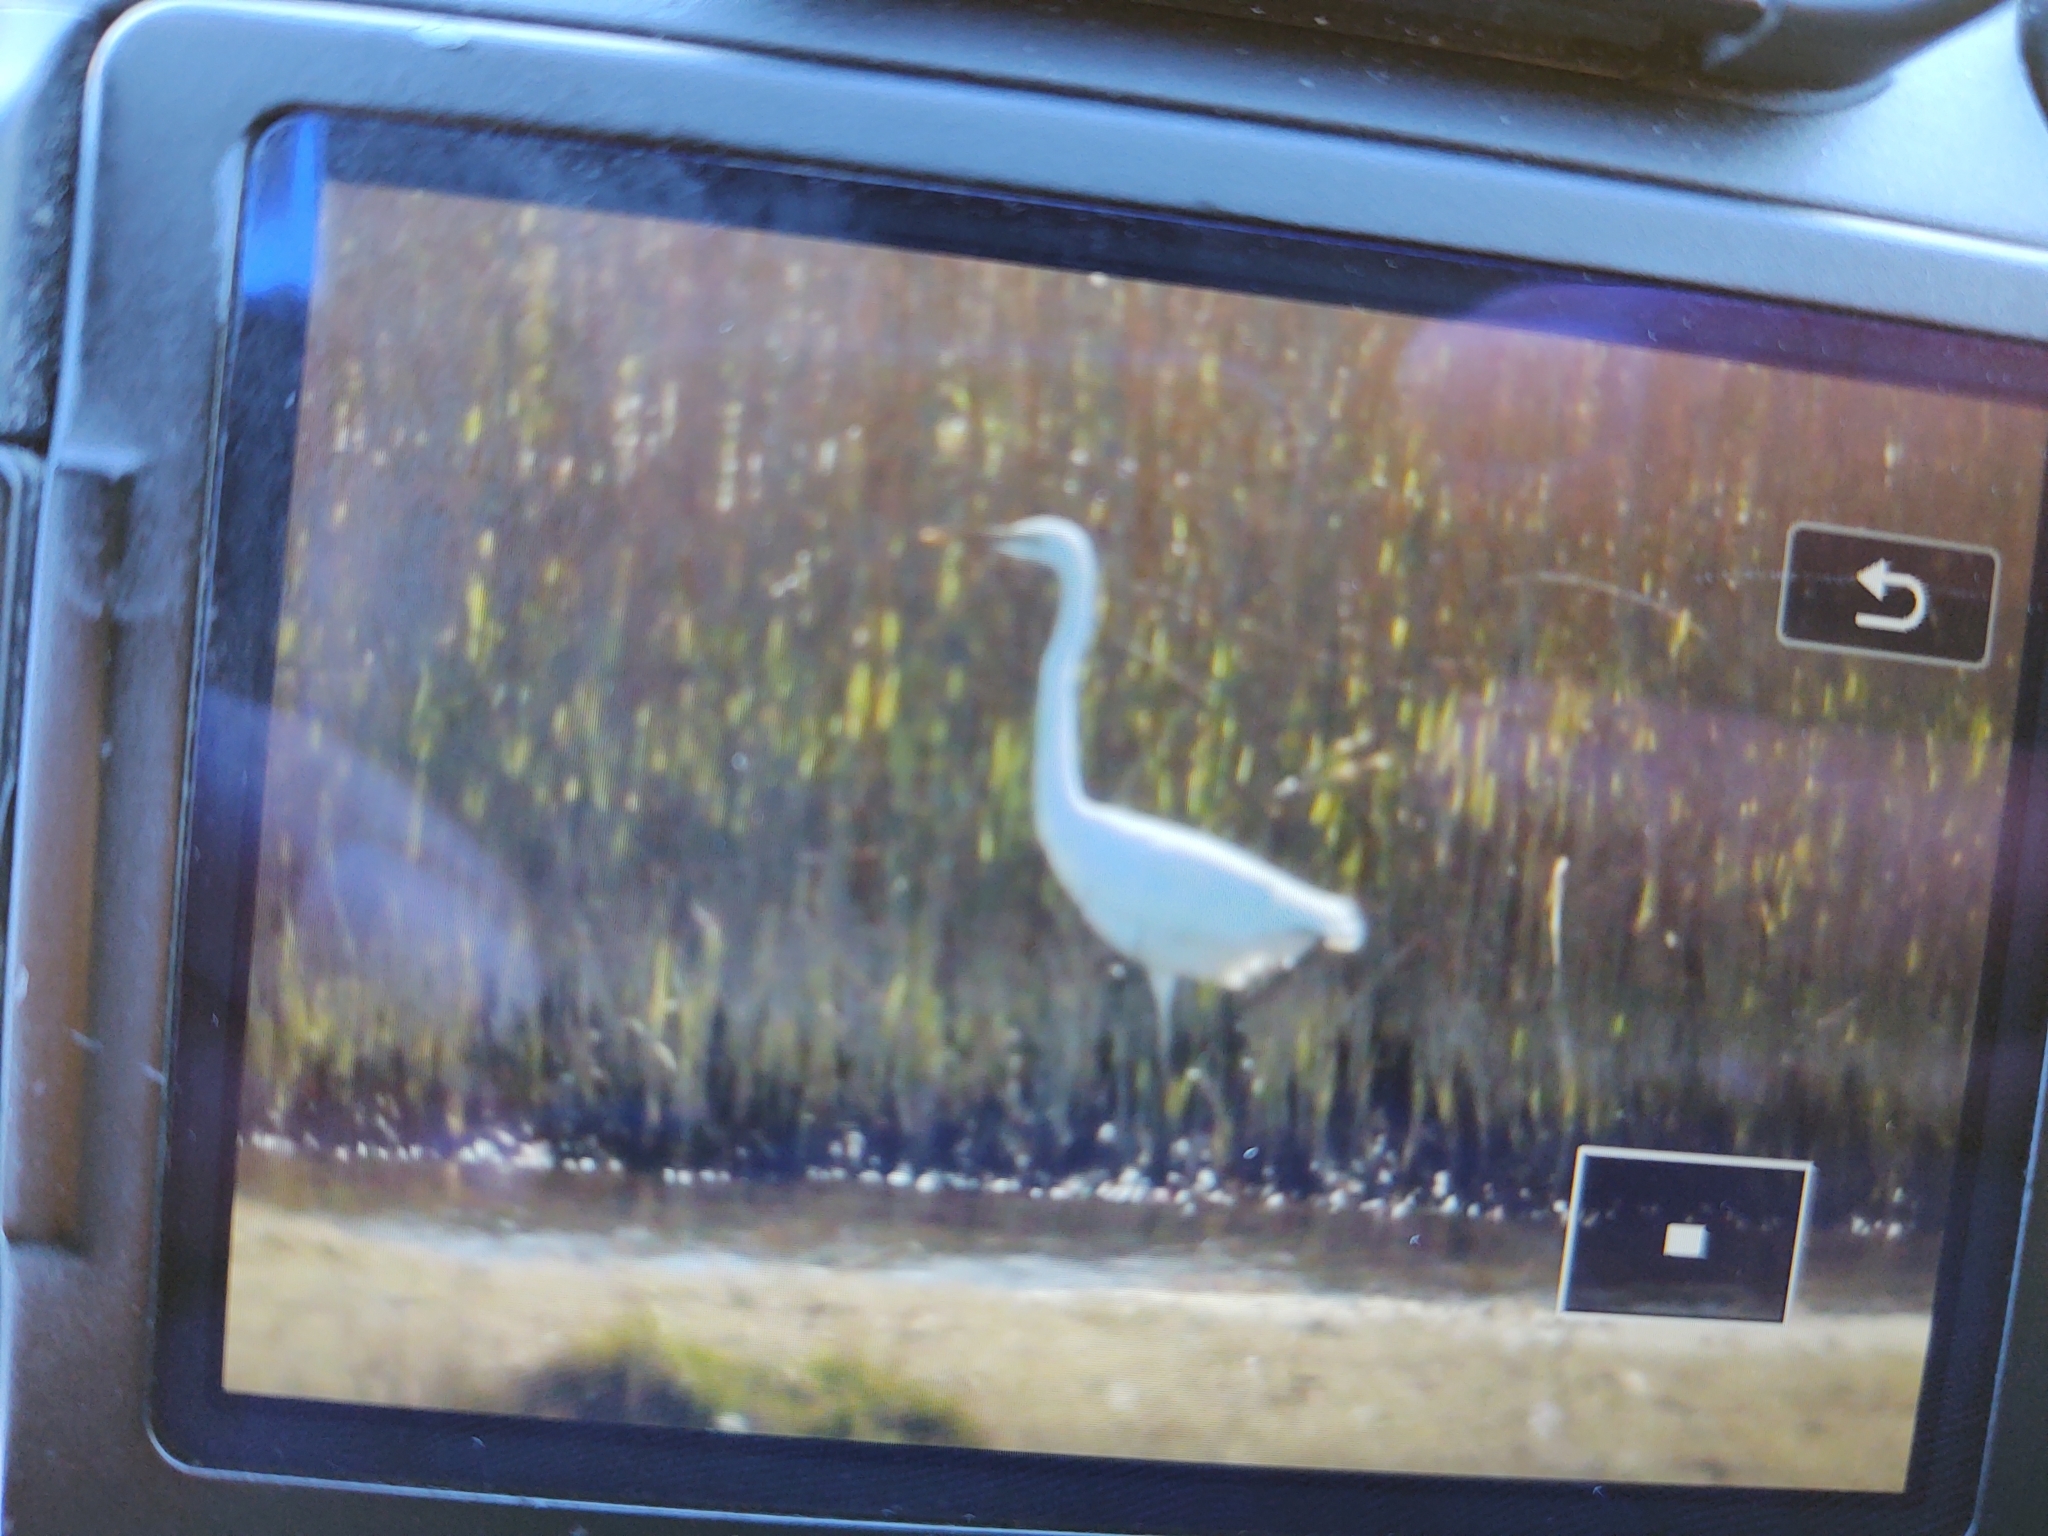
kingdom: Animalia
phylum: Chordata
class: Aves
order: Pelecaniformes
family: Ardeidae
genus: Ardea
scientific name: Ardea alba
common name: Great egret
